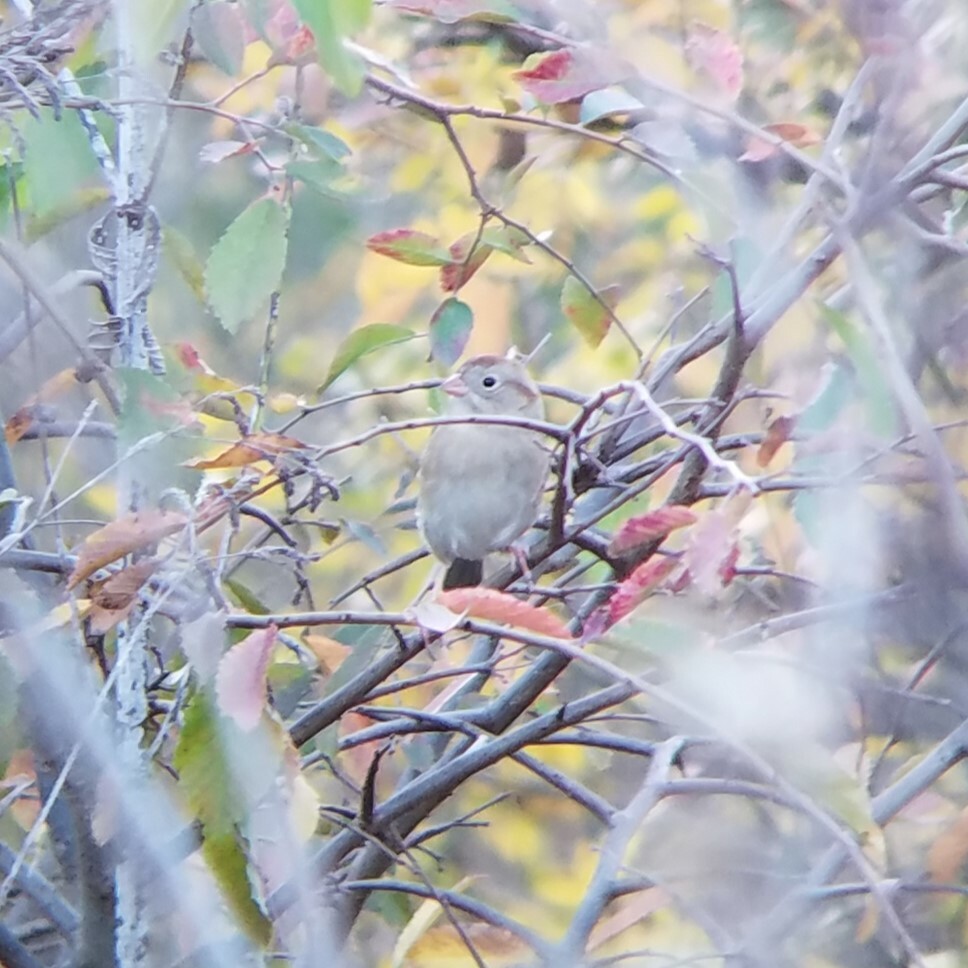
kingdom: Animalia
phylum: Chordata
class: Aves
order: Passeriformes
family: Passerellidae
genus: Spizella
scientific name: Spizella pusilla
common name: Field sparrow
